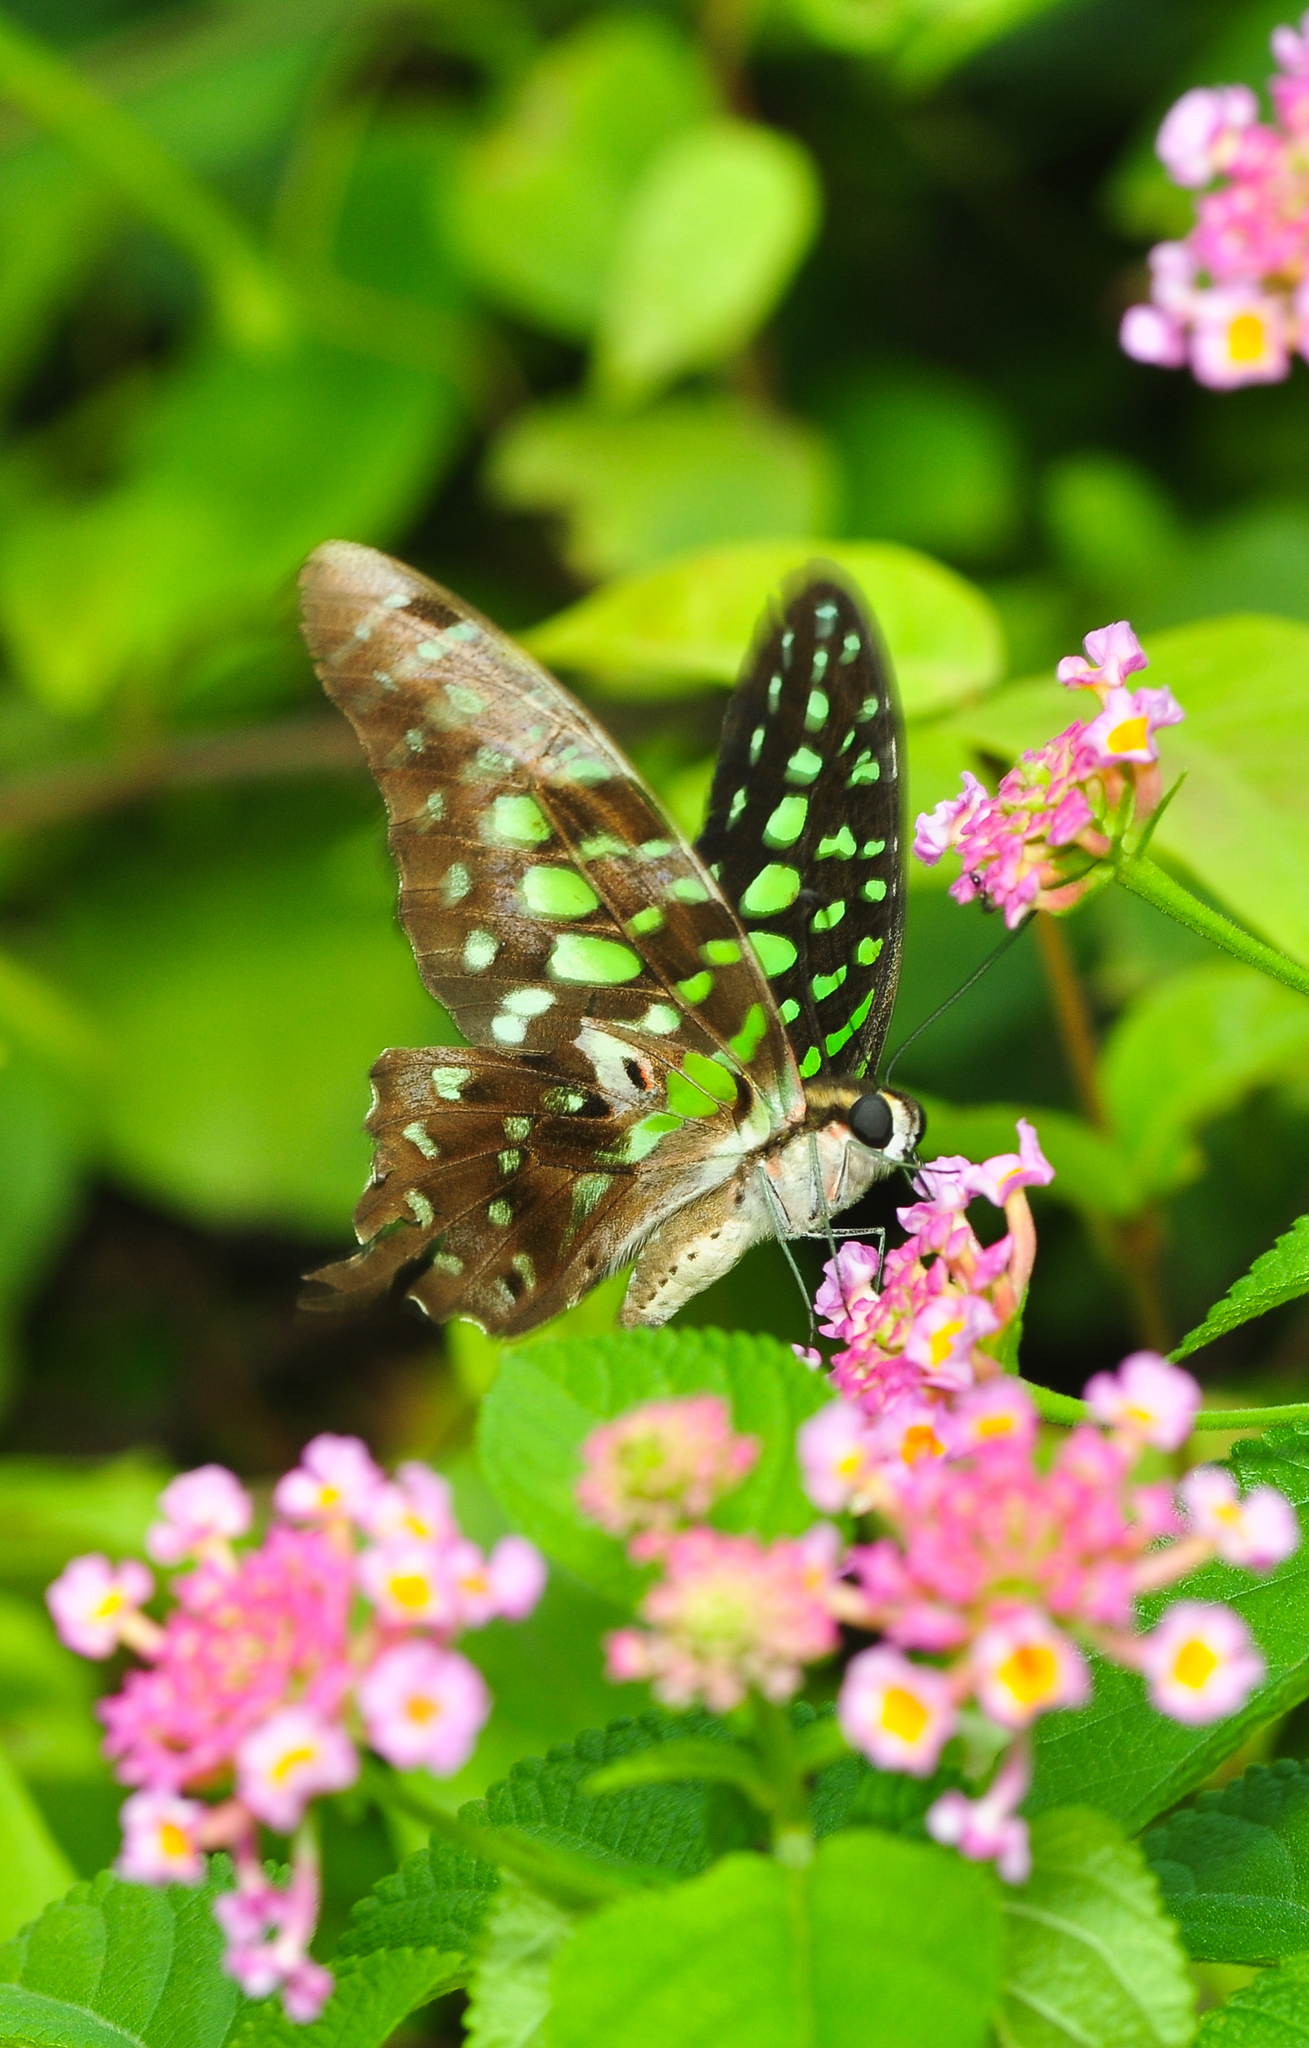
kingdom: Animalia
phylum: Arthropoda
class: Insecta
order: Lepidoptera
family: Papilionidae
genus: Graphium
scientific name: Graphium agamemnon
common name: Tailed jay
